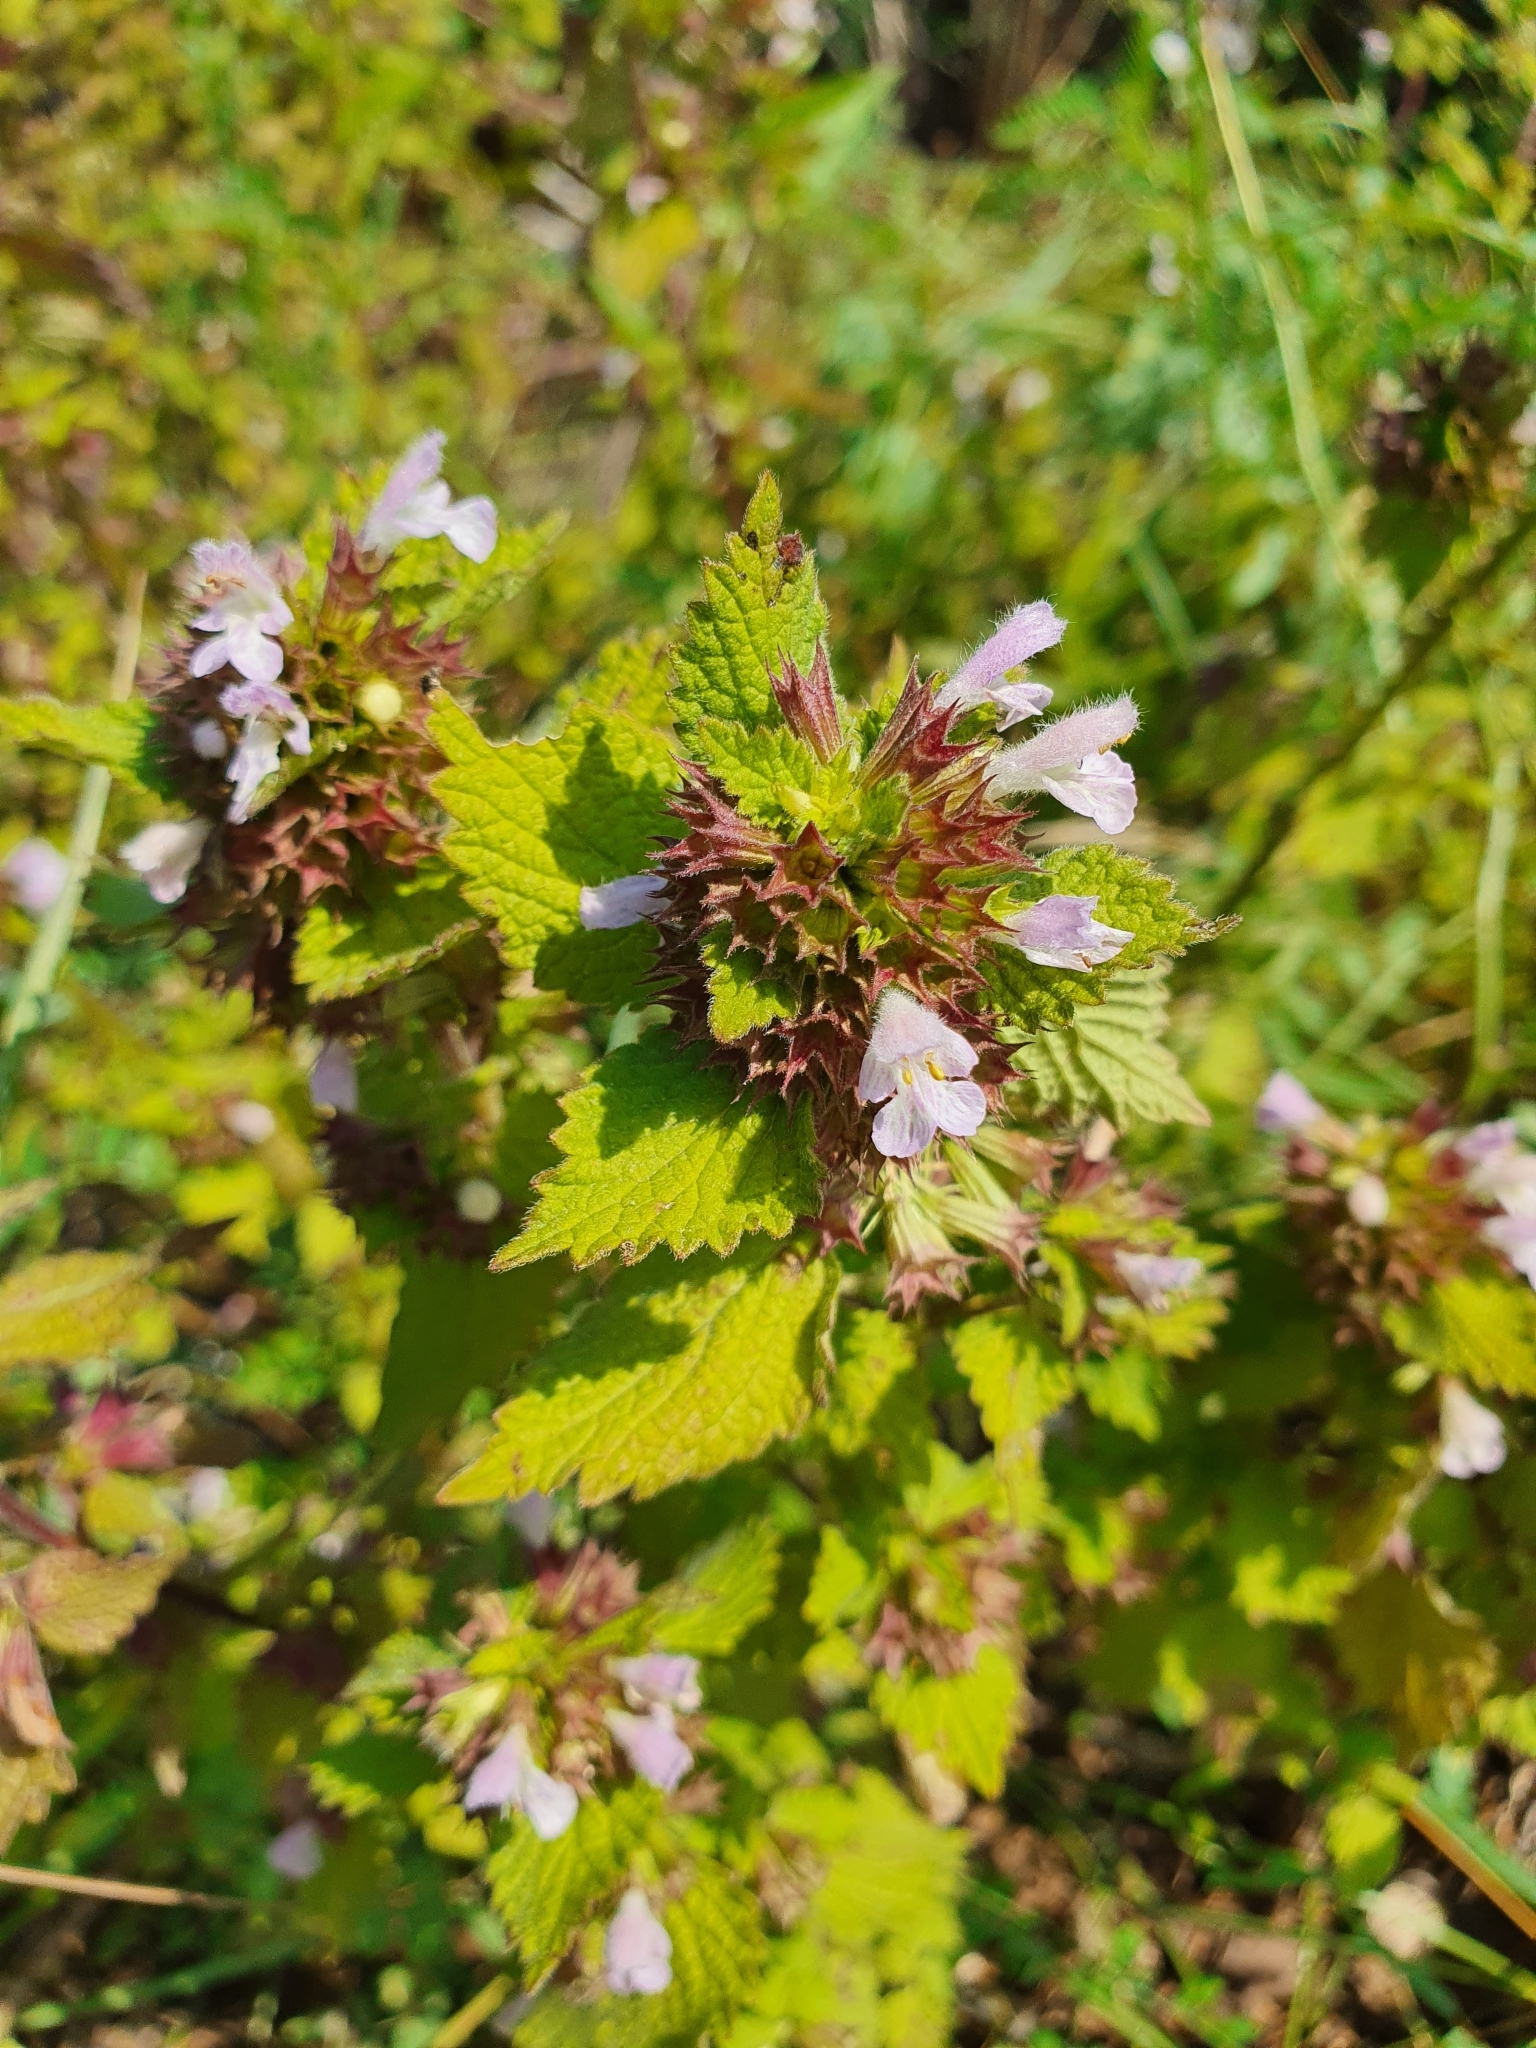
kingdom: Plantae
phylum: Tracheophyta
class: Magnoliopsida
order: Lamiales
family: Lamiaceae
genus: Ballota
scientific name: Ballota nigra
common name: Black horehound
